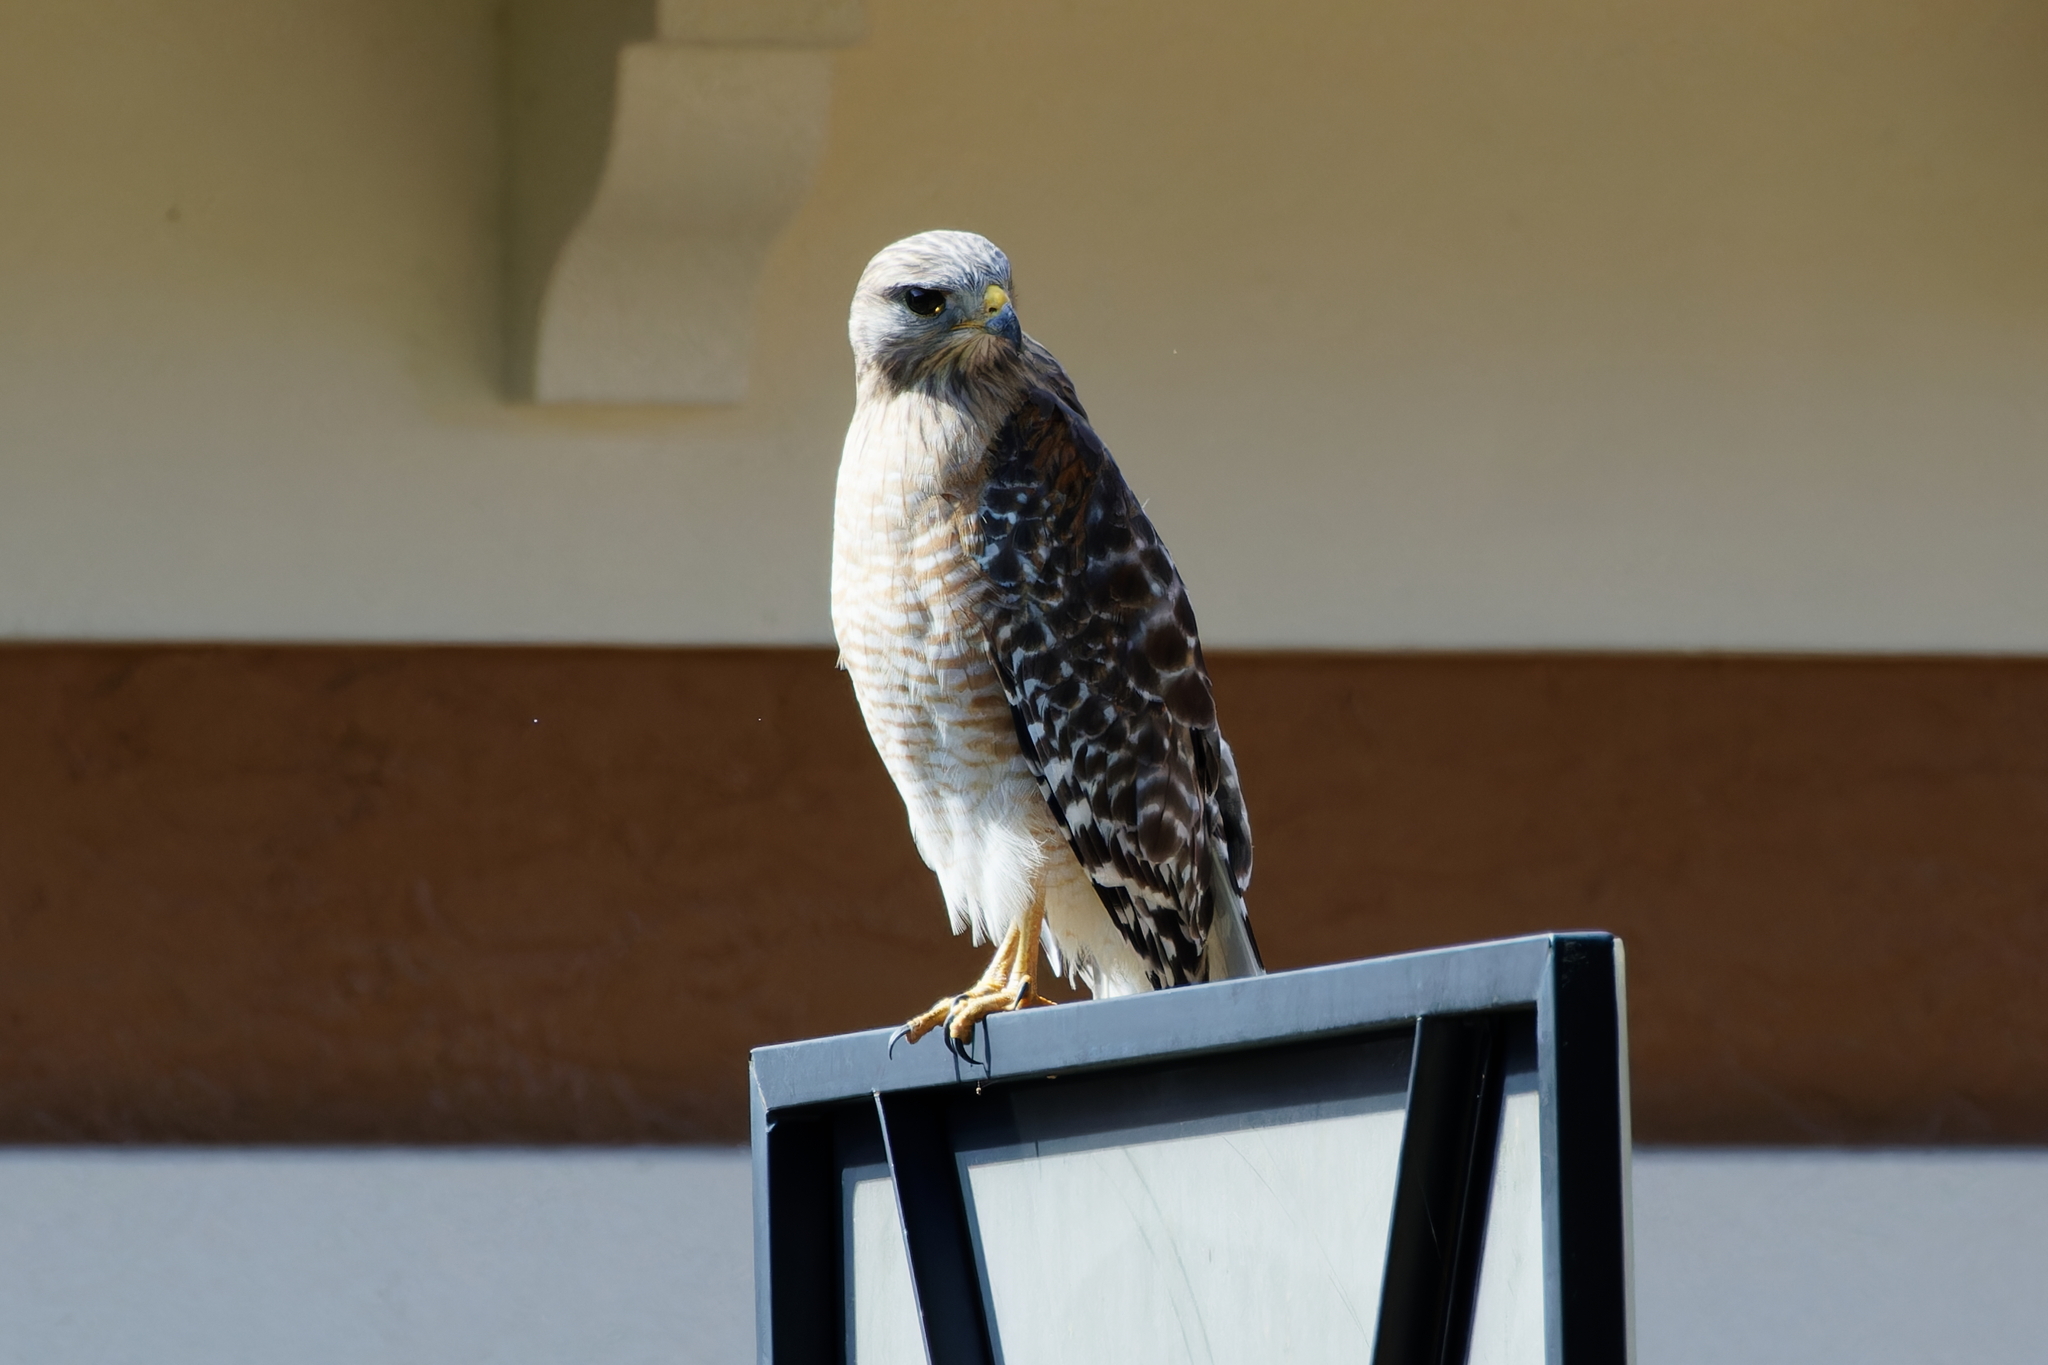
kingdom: Animalia
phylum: Chordata
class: Aves
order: Accipitriformes
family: Accipitridae
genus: Buteo
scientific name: Buteo lineatus
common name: Red-shouldered hawk
